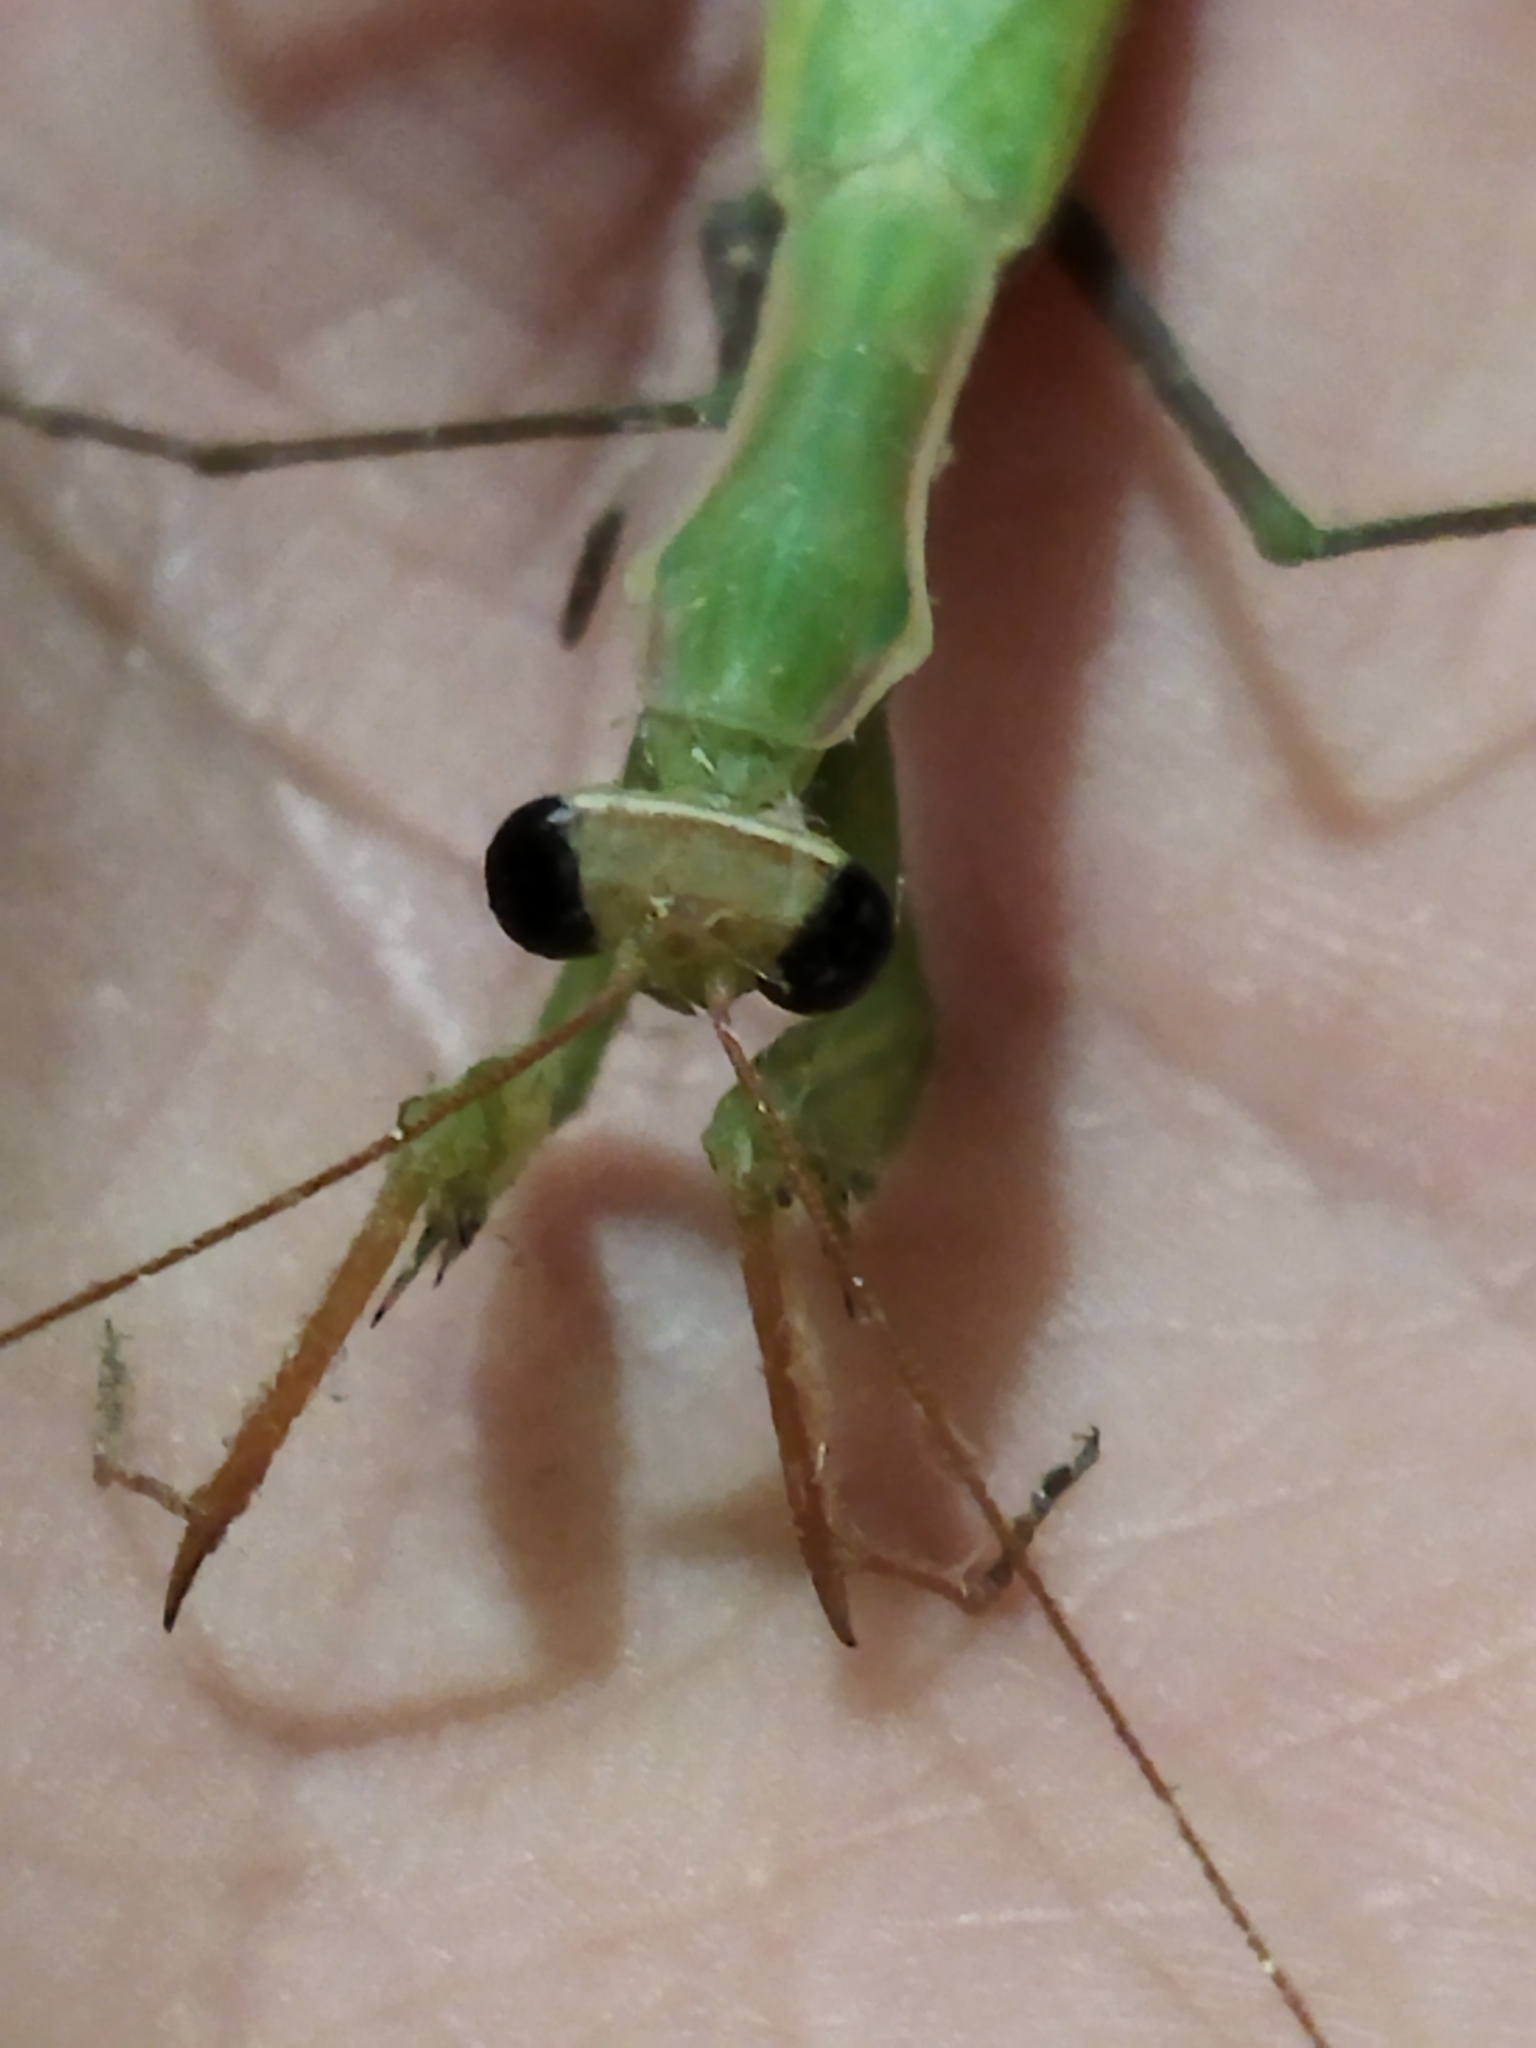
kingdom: Animalia
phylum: Arthropoda
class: Insecta
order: Mantodea
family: Mantidae
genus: Mantis
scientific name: Mantis religiosa
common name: Praying mantis
